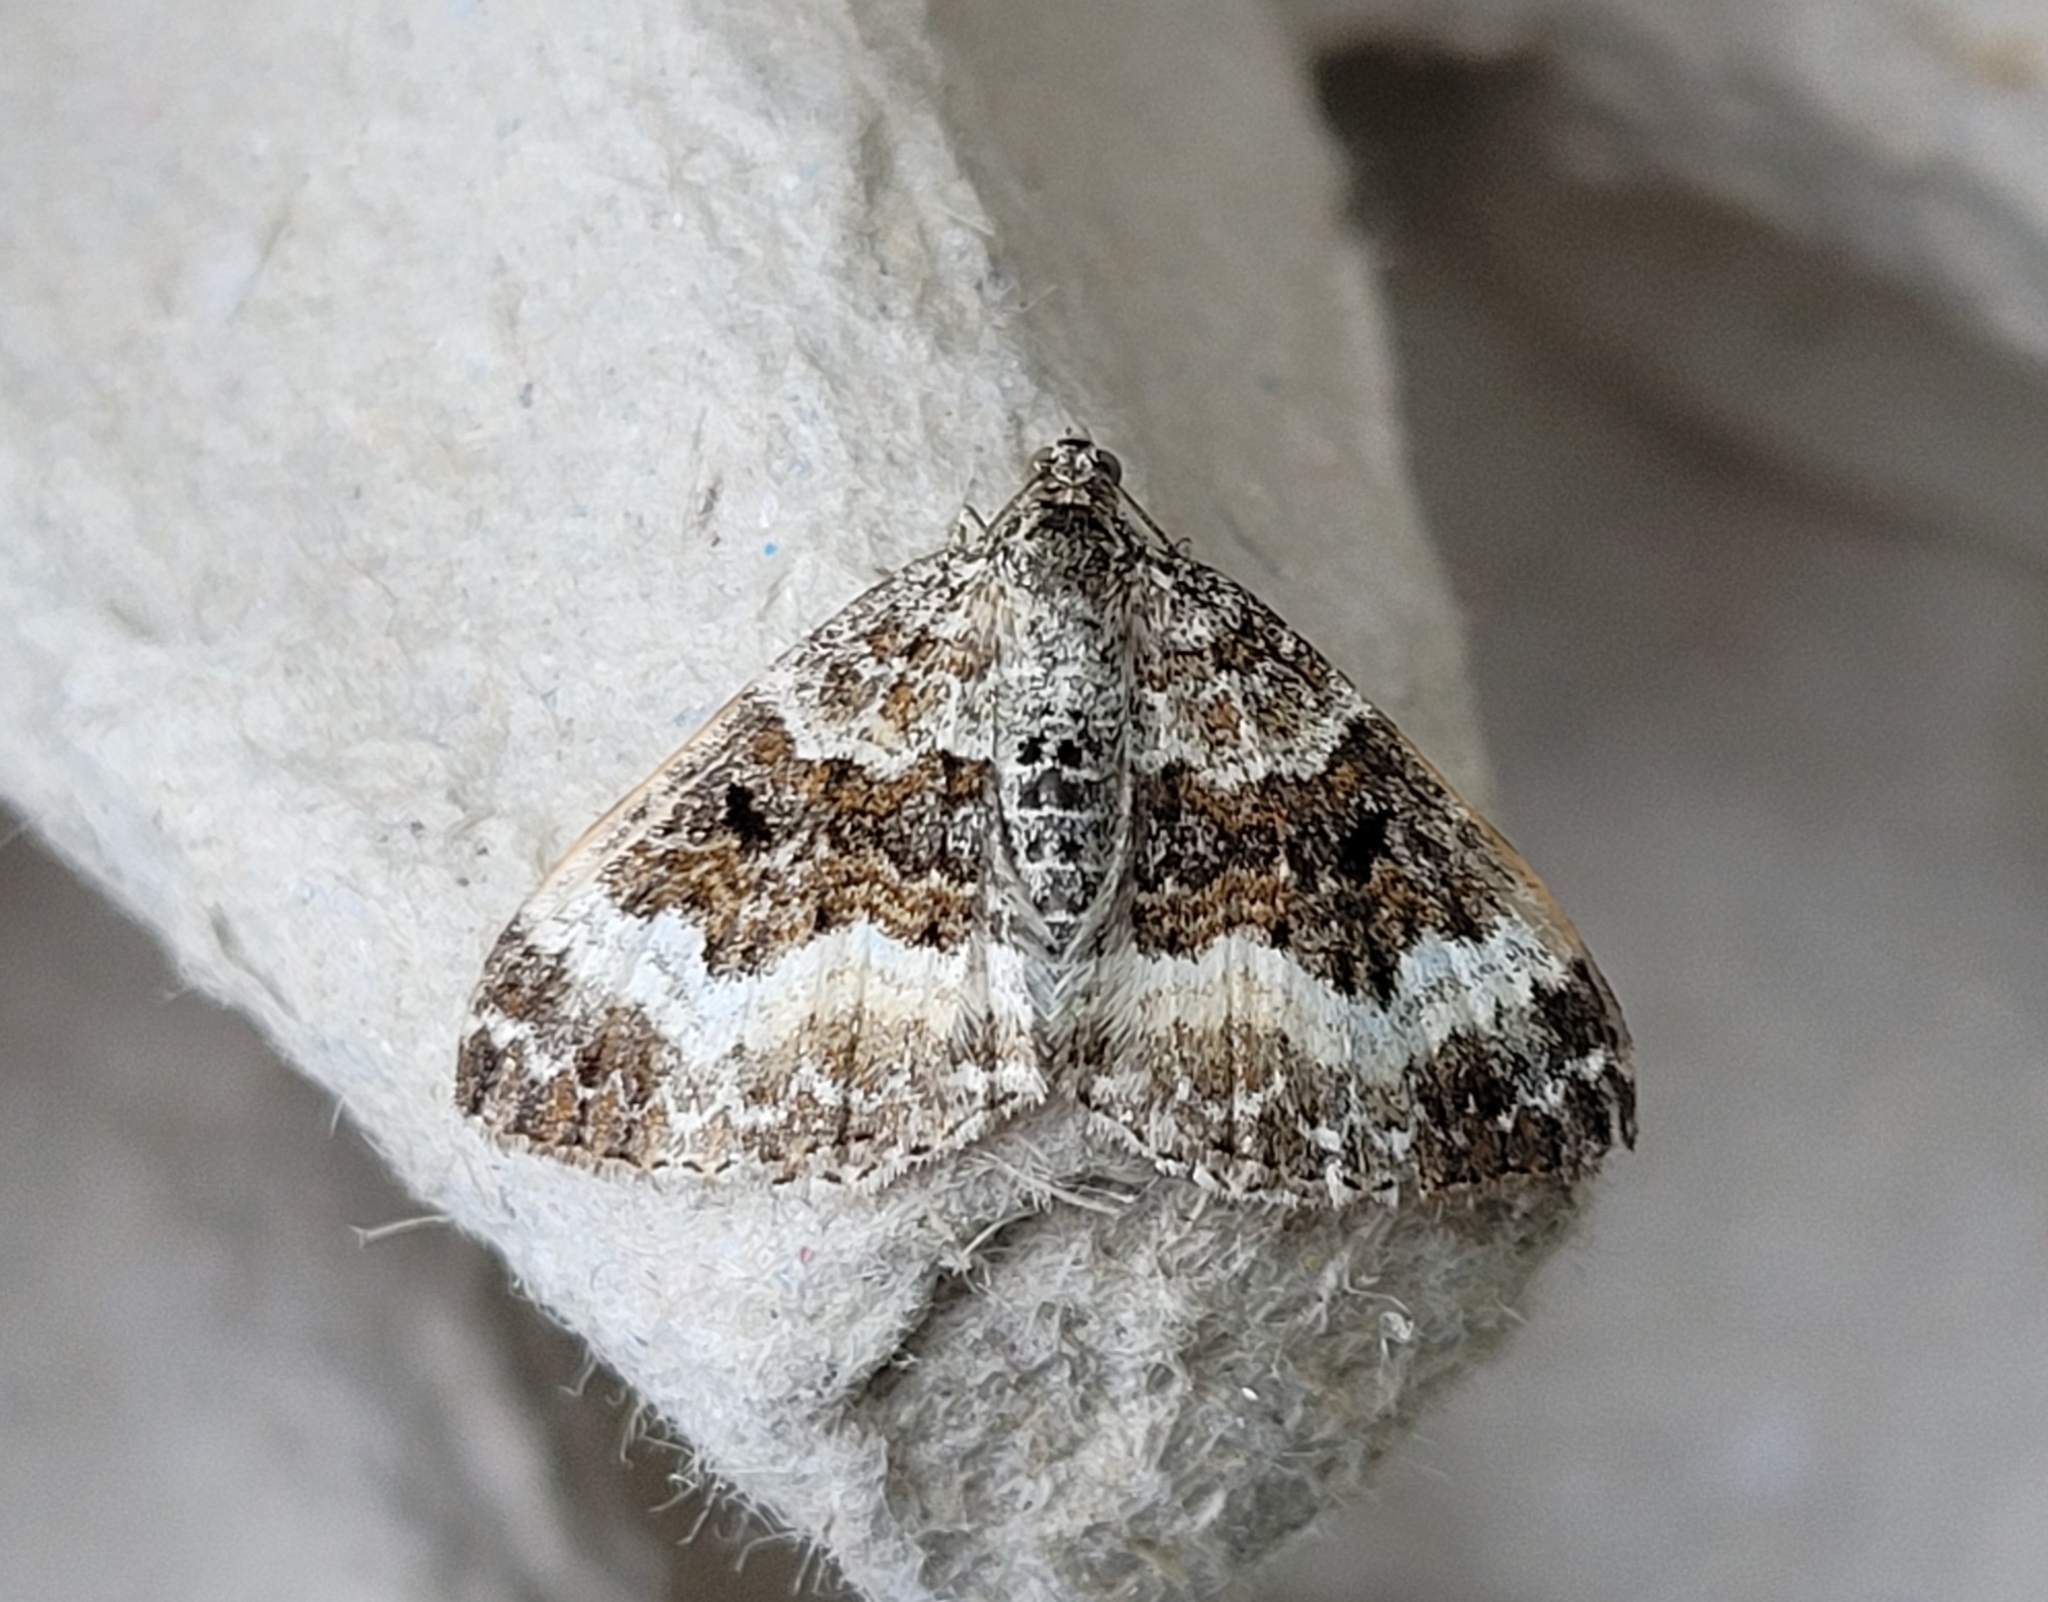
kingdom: Animalia
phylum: Arthropoda
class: Insecta
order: Lepidoptera
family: Geometridae
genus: Epirrhoe
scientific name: Epirrhoe alternata
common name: Common carpet
